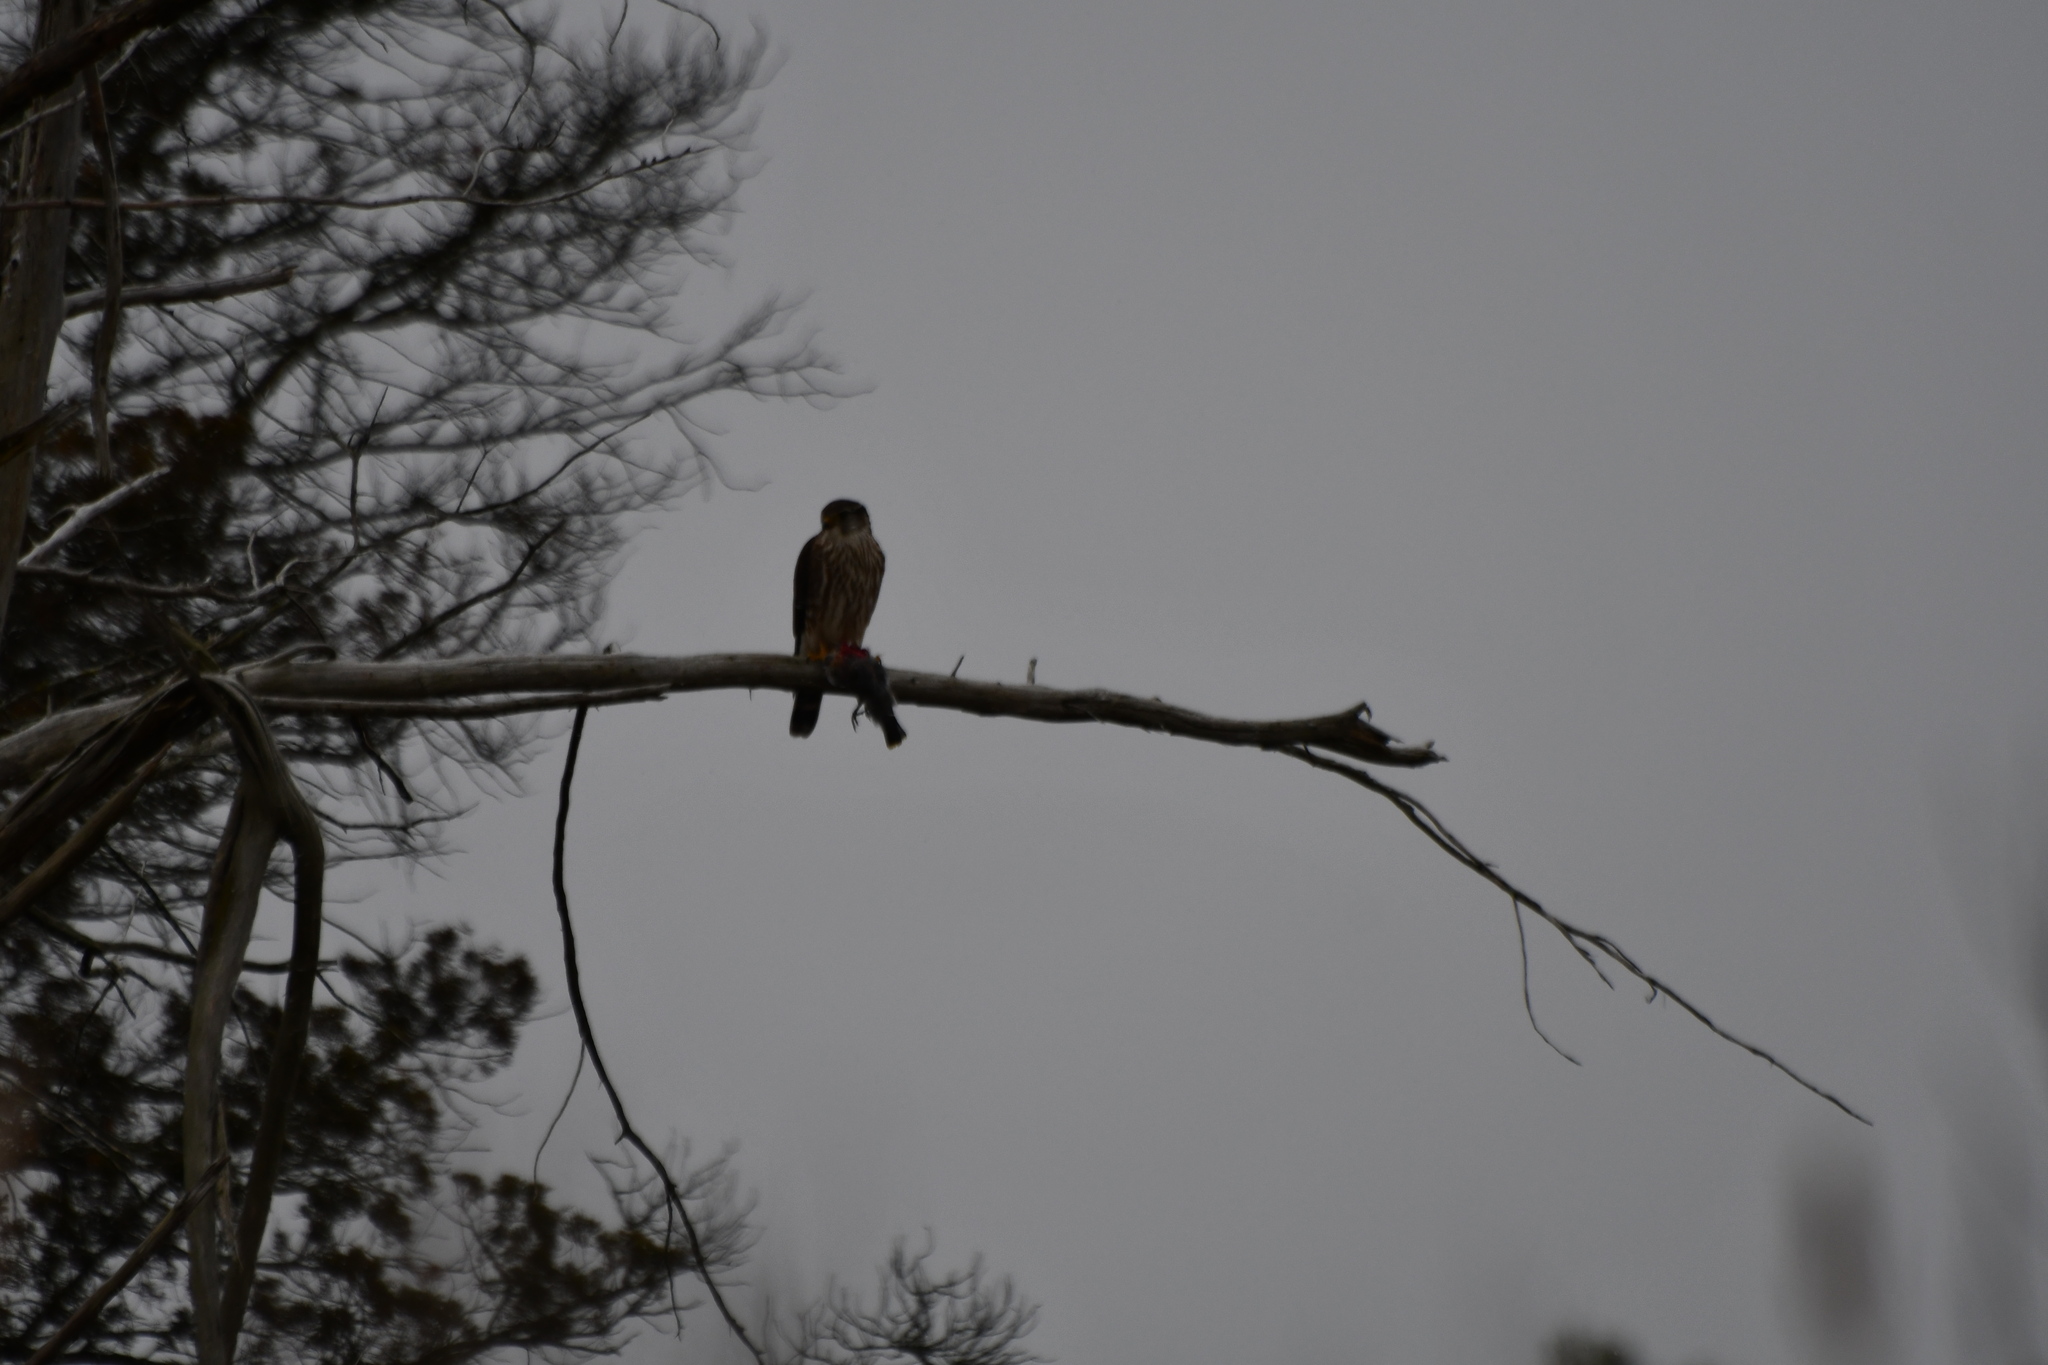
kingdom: Animalia
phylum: Chordata
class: Aves
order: Falconiformes
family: Falconidae
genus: Falco
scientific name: Falco columbarius
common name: Merlin
